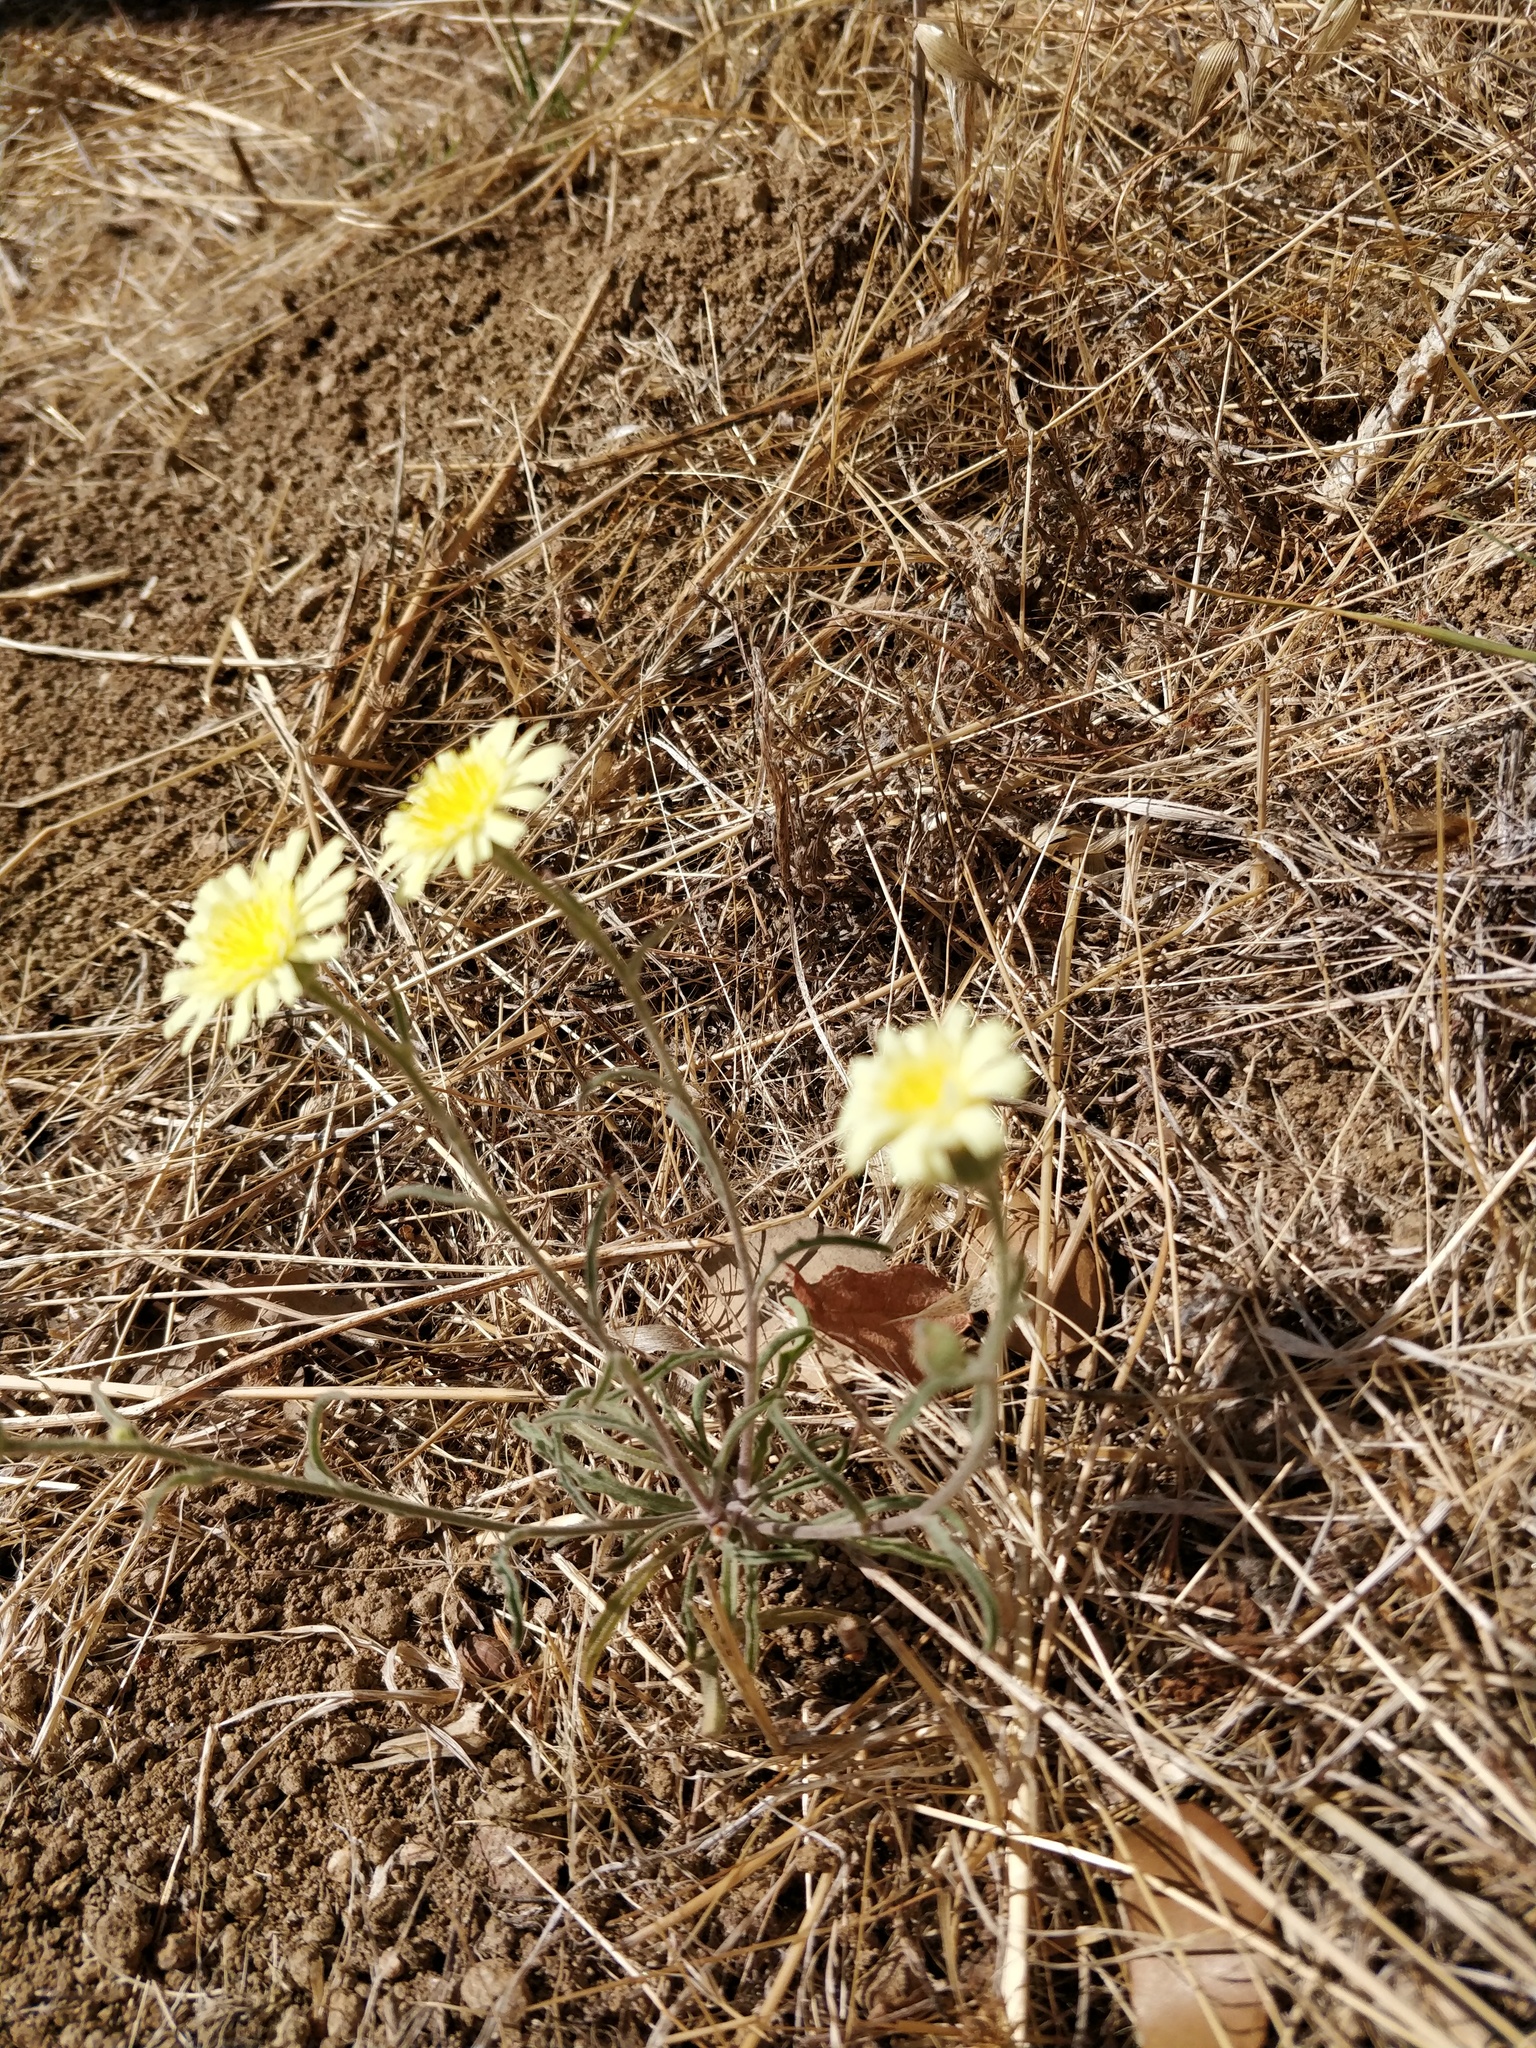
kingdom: Plantae
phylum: Tracheophyta
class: Magnoliopsida
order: Asterales
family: Asteraceae
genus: Andryala
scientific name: Andryala integrifolia
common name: Common andryala
